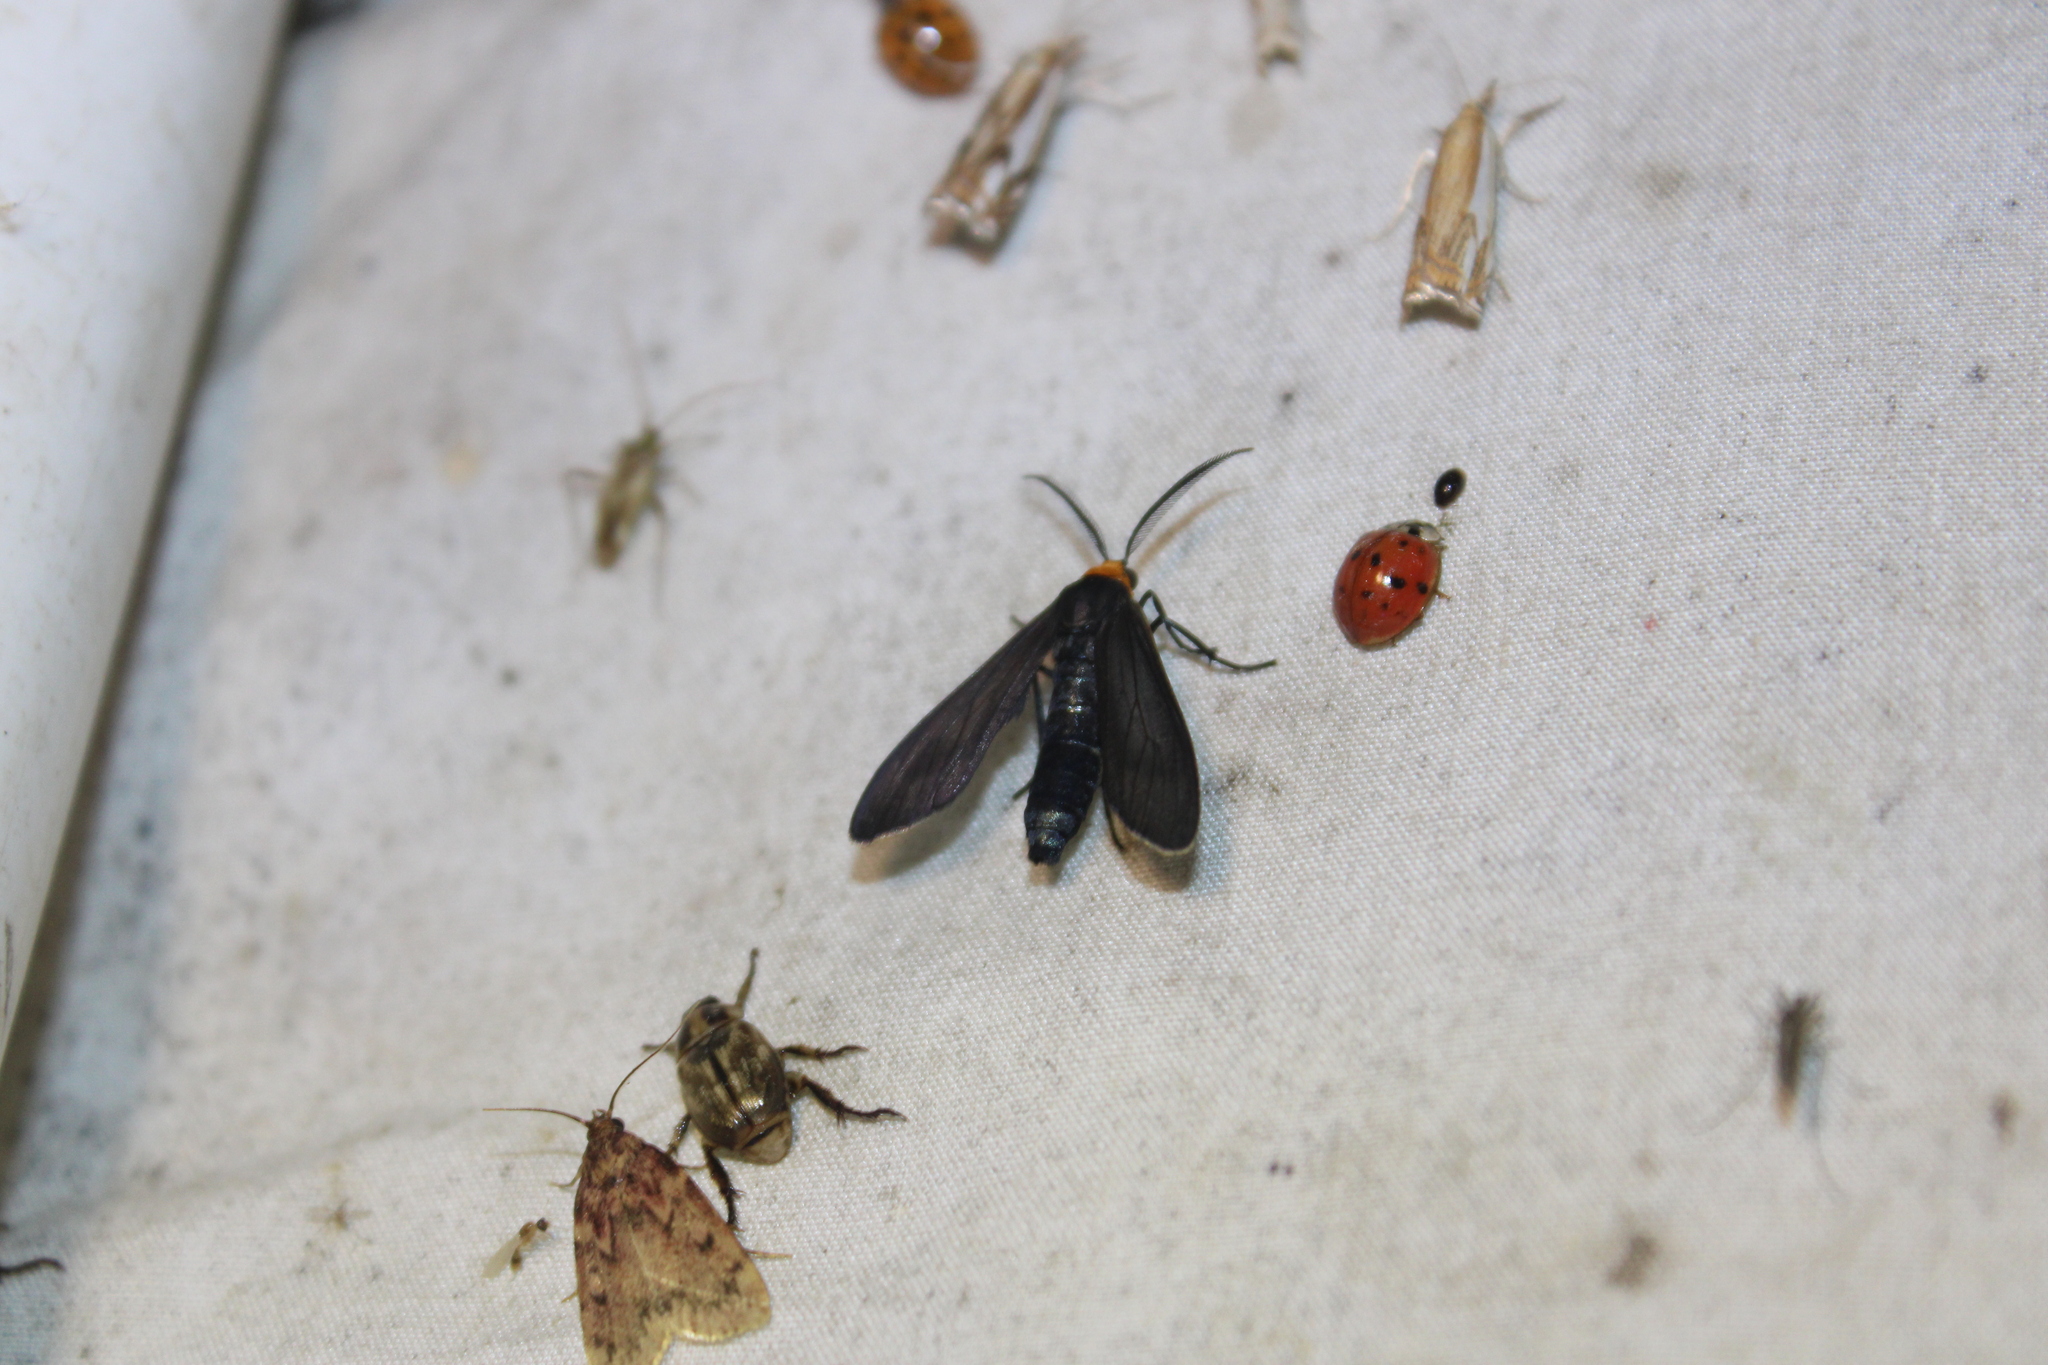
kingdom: Animalia
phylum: Arthropoda
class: Insecta
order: Lepidoptera
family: Erebidae
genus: Cisseps
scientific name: Cisseps fulvicollis
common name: Yellow-collared scape moth
